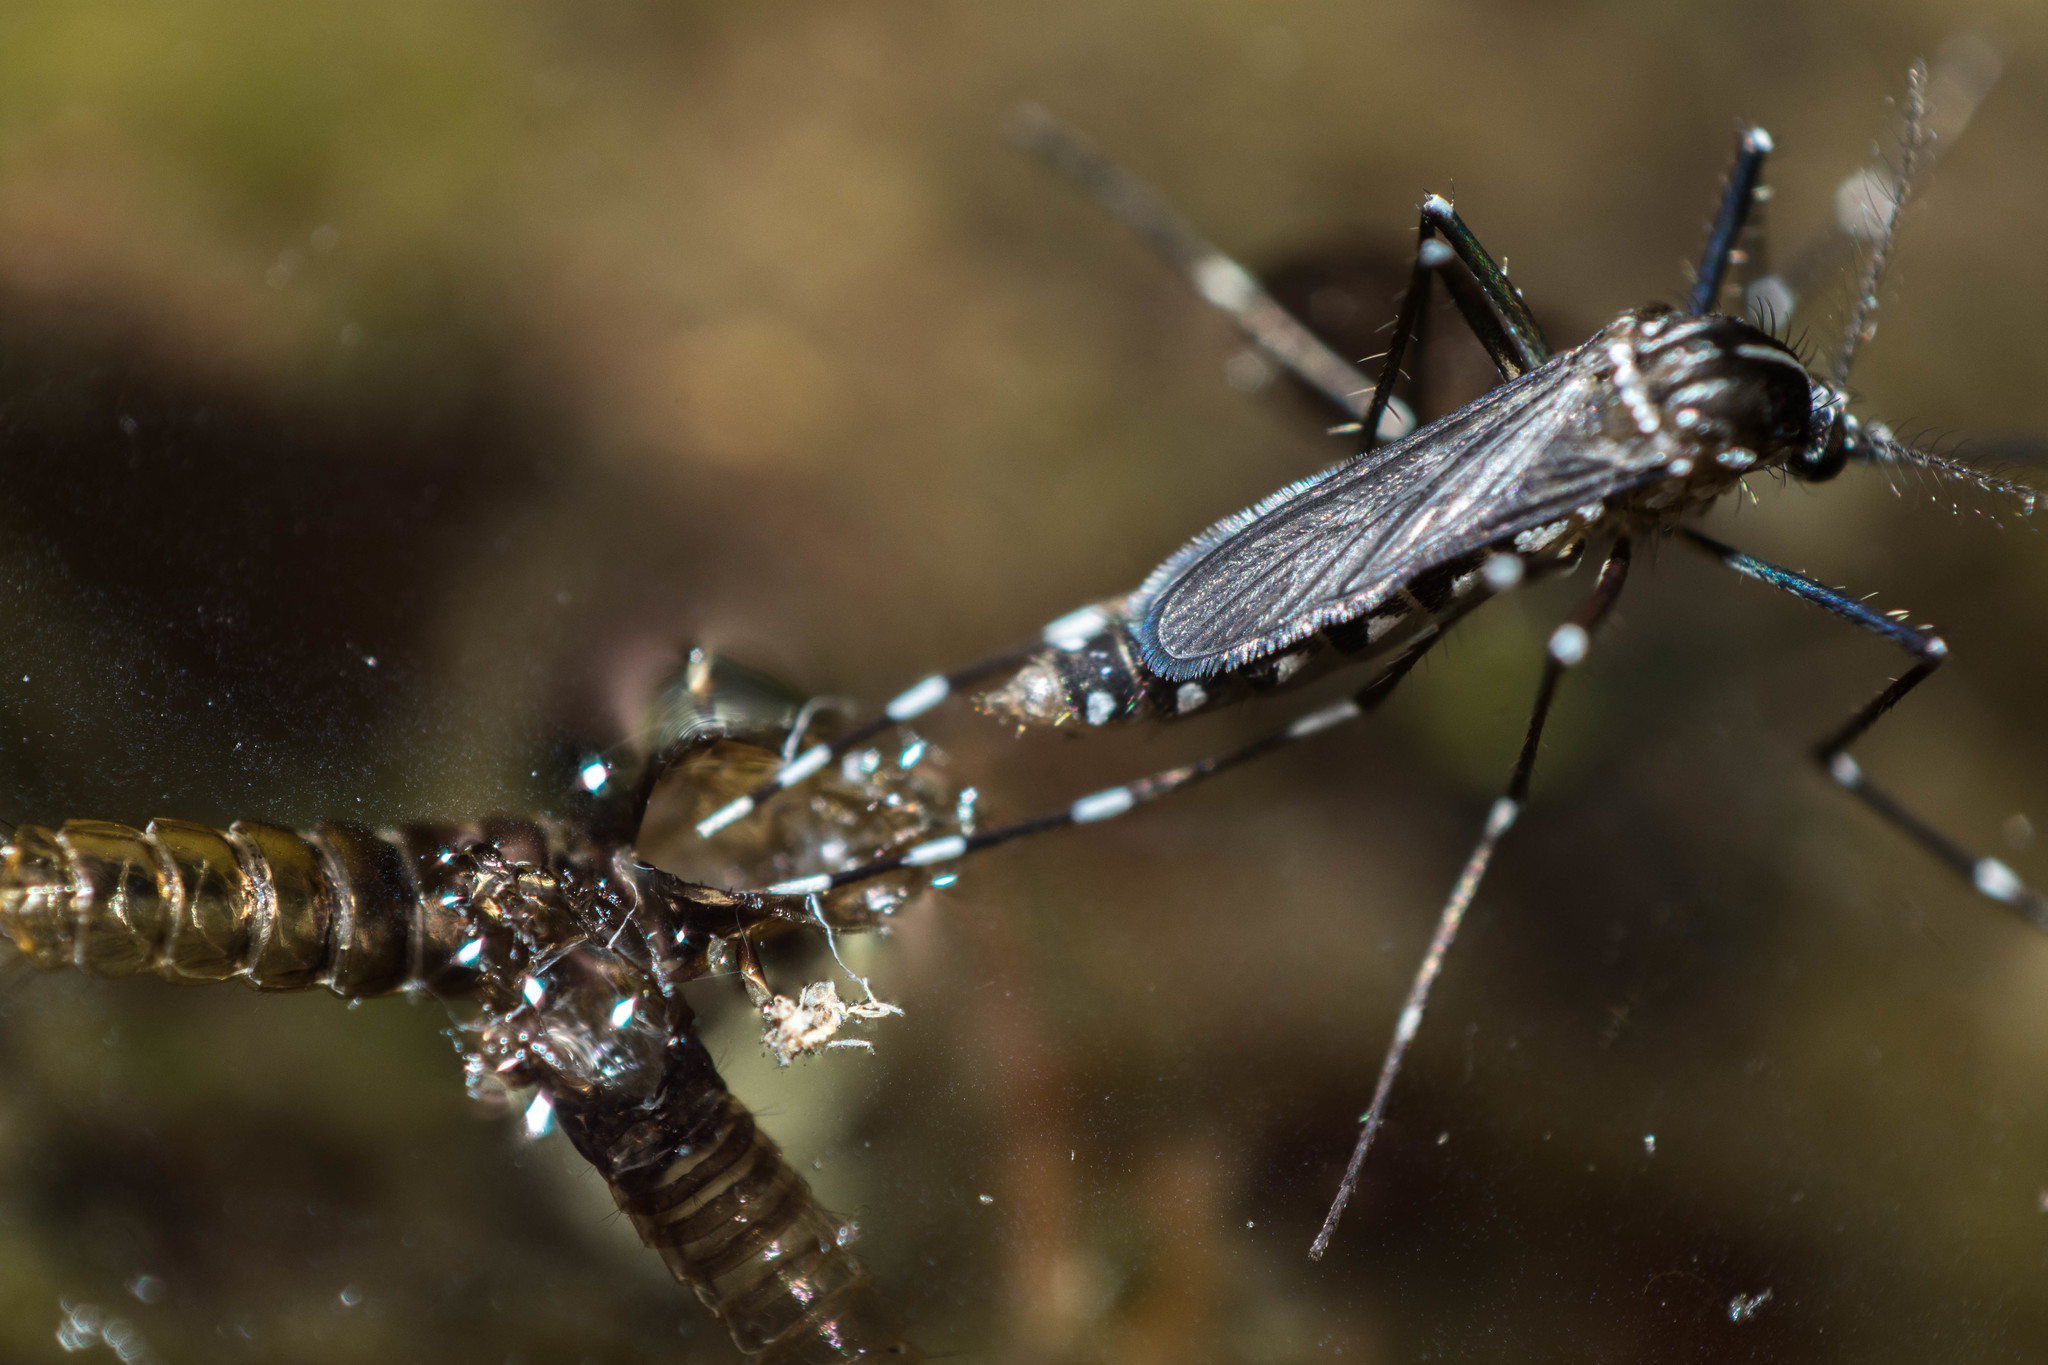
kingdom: Animalia
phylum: Arthropoda
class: Insecta
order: Diptera
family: Culicidae
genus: Aedes
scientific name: Aedes albopictus
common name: Tiger mosquito
